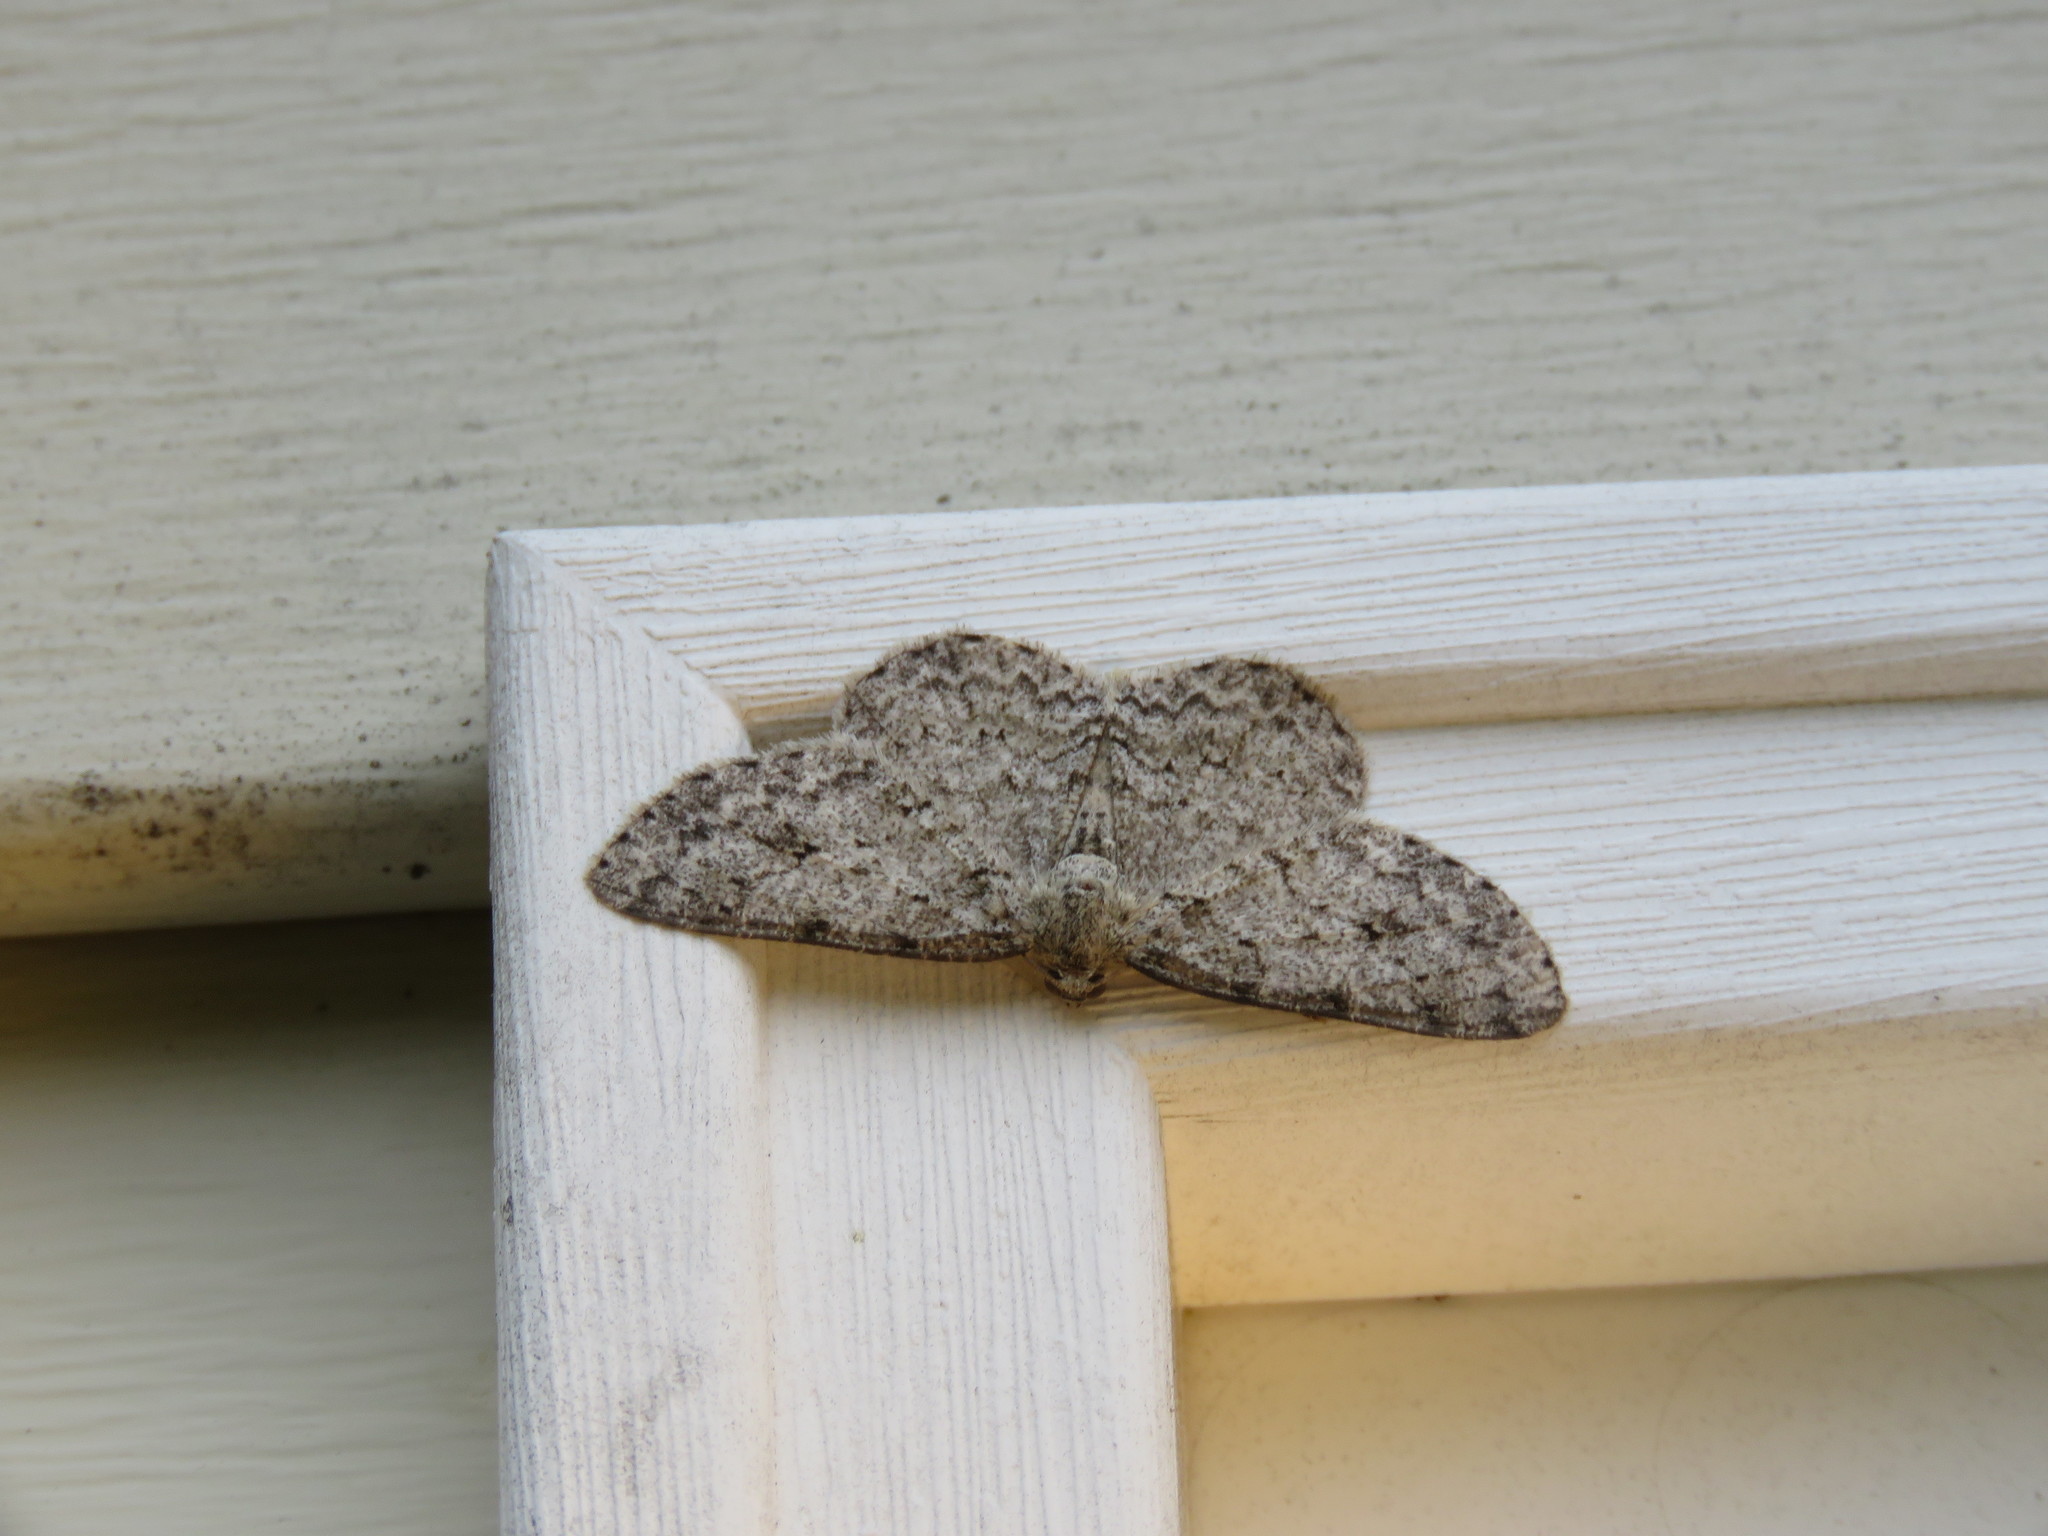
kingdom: Animalia
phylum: Arthropoda
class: Insecta
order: Lepidoptera
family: Geometridae
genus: Ectropis
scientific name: Ectropis crepuscularia
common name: Engrailed
